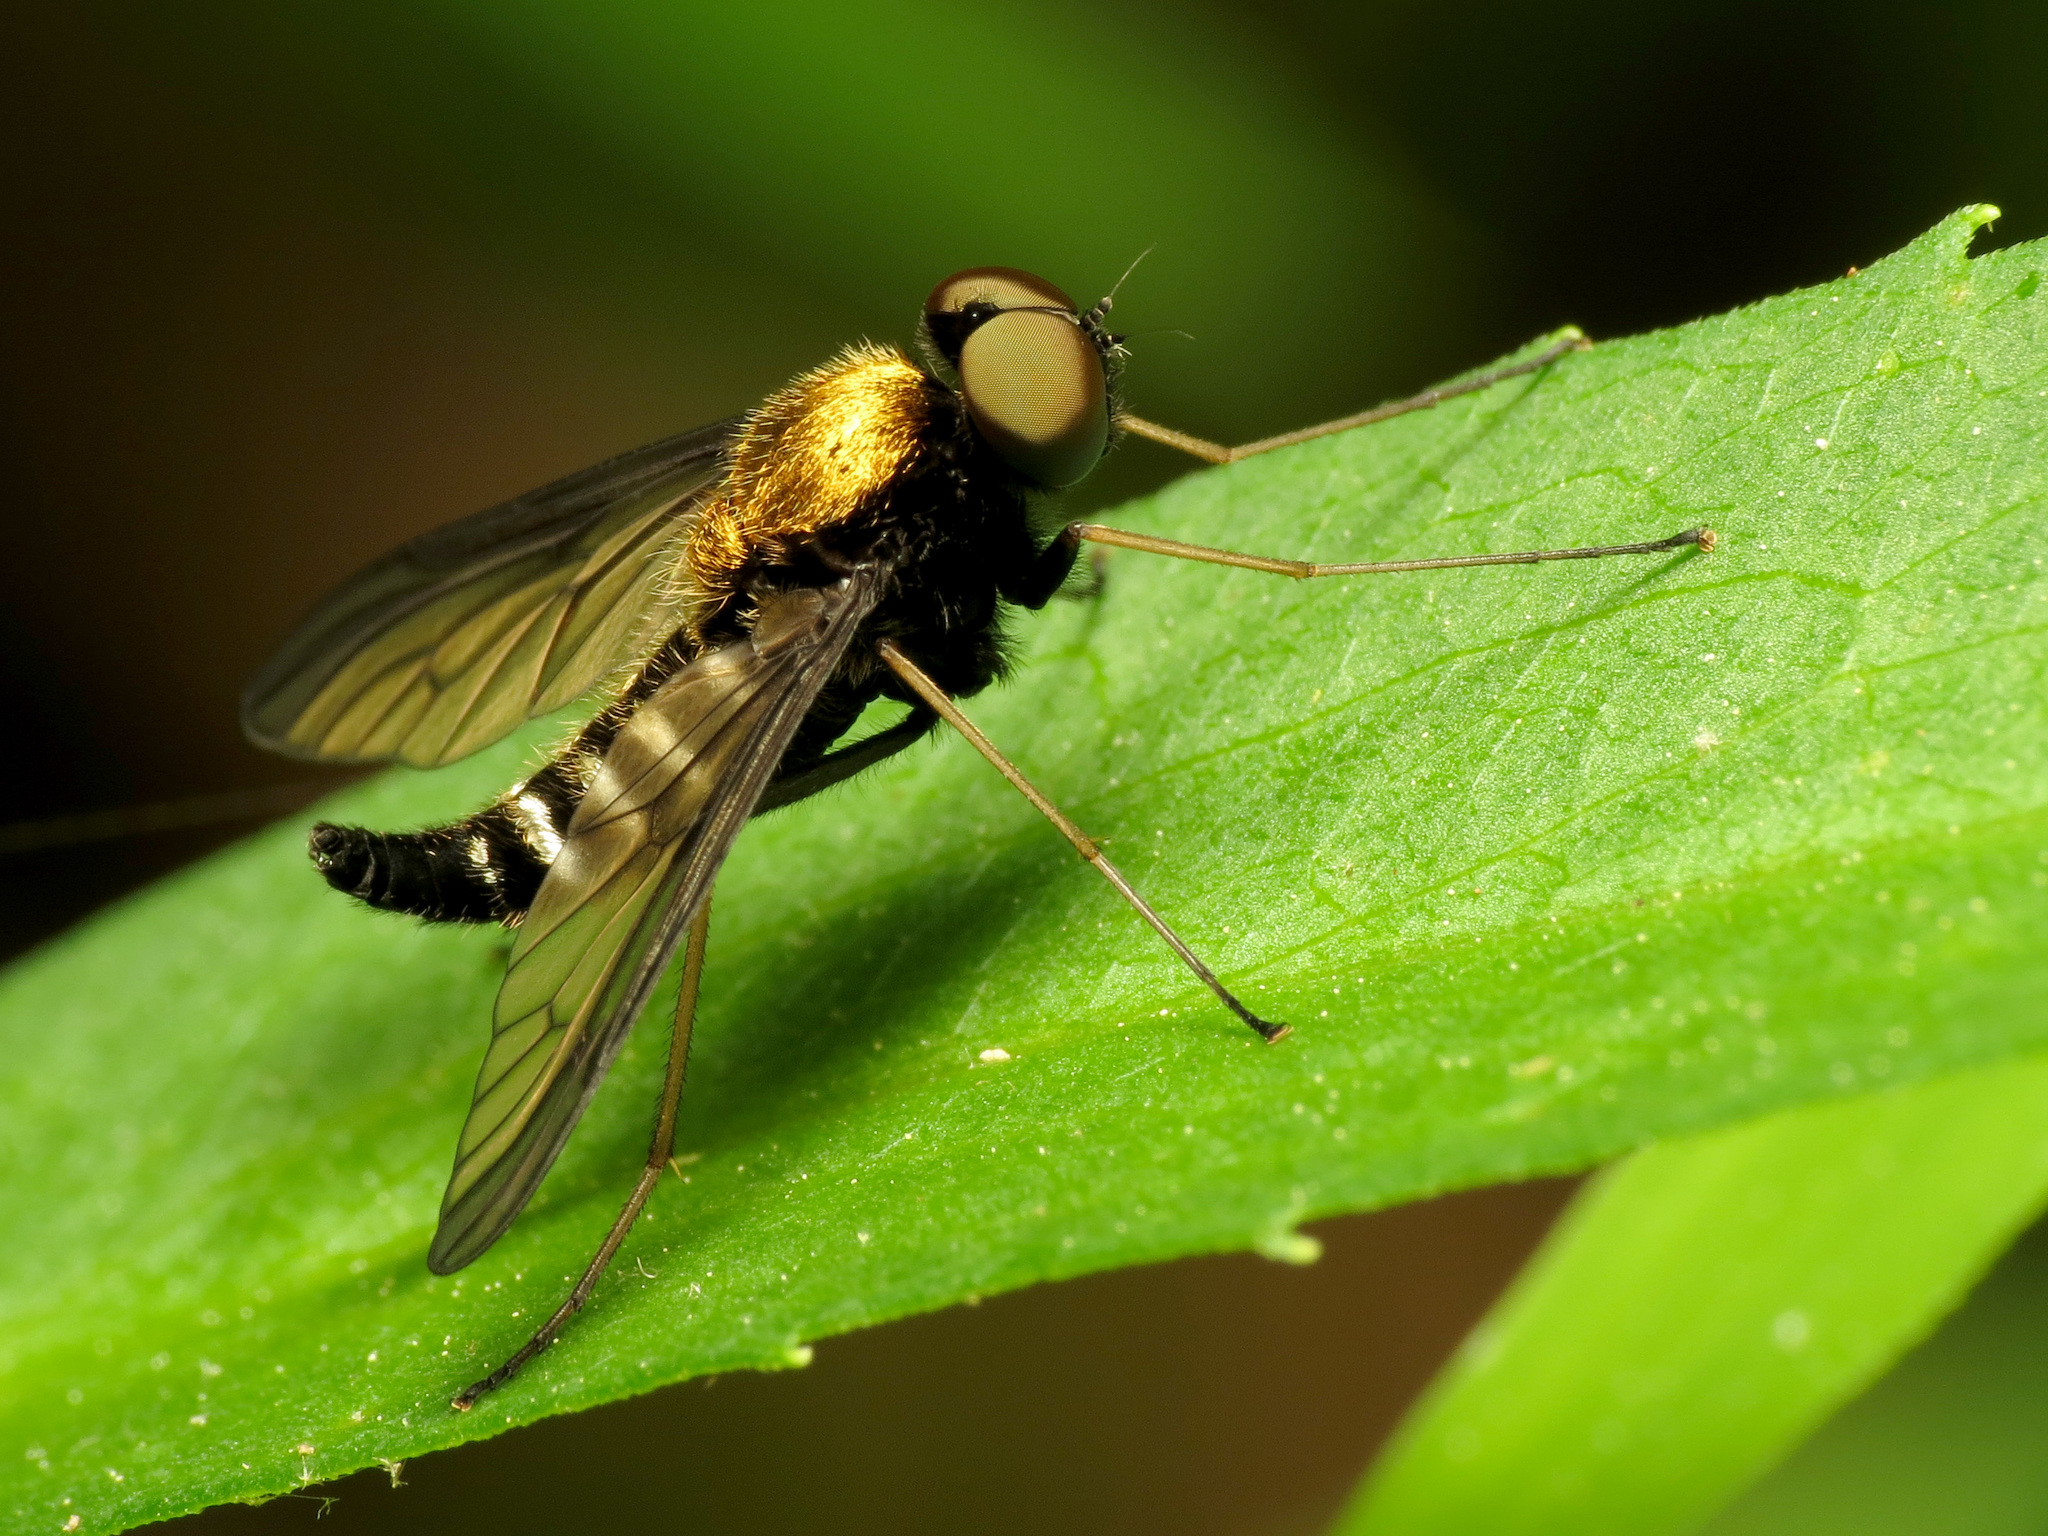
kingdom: Animalia
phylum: Arthropoda
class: Insecta
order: Diptera
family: Rhagionidae
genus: Chrysopilus
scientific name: Chrysopilus thoracicus
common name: Golden-backed snipe fly
